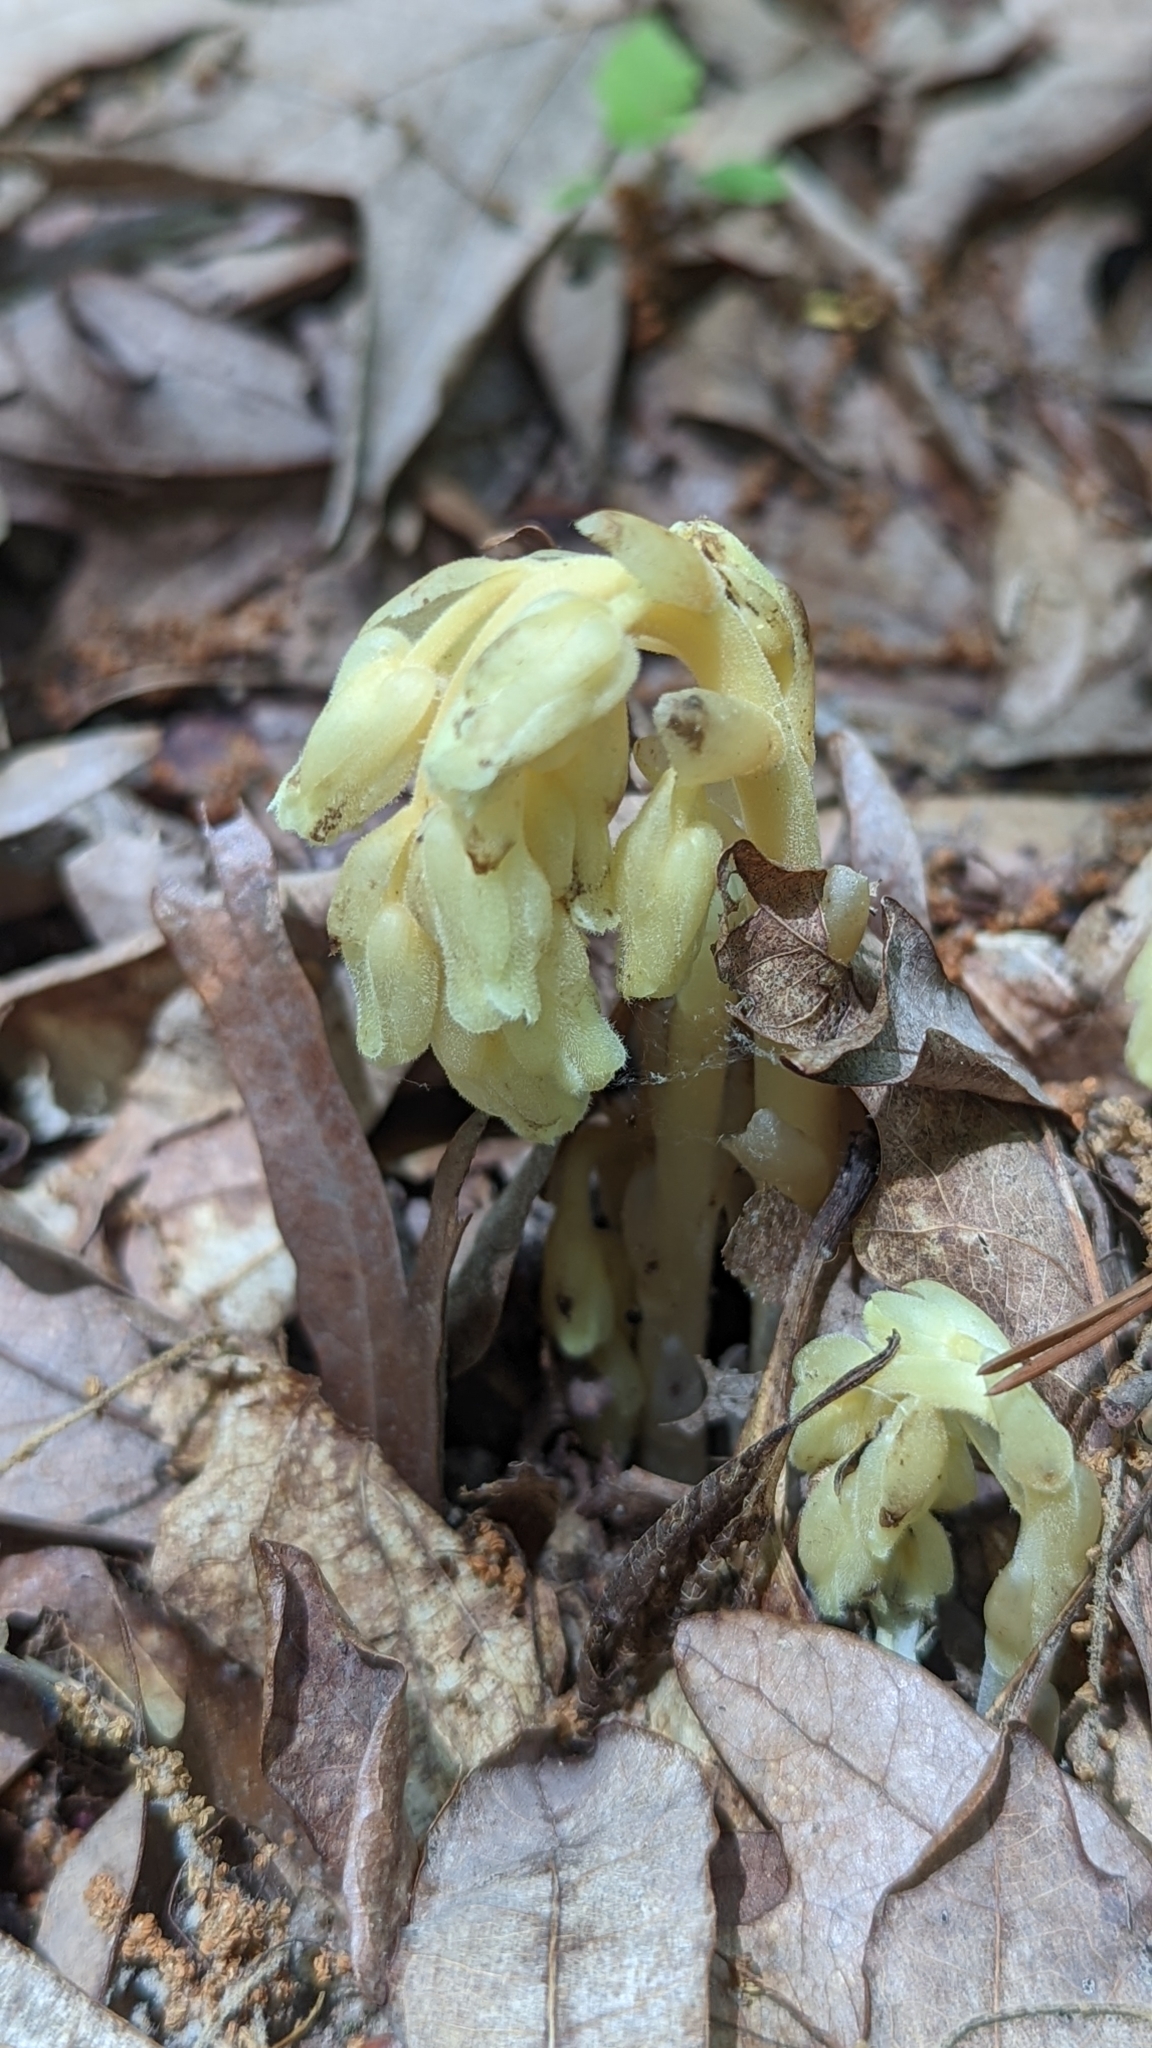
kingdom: Plantae
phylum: Tracheophyta
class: Magnoliopsida
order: Ericales
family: Ericaceae
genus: Hypopitys
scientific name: Hypopitys monotropa
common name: Yellow bird's-nest
